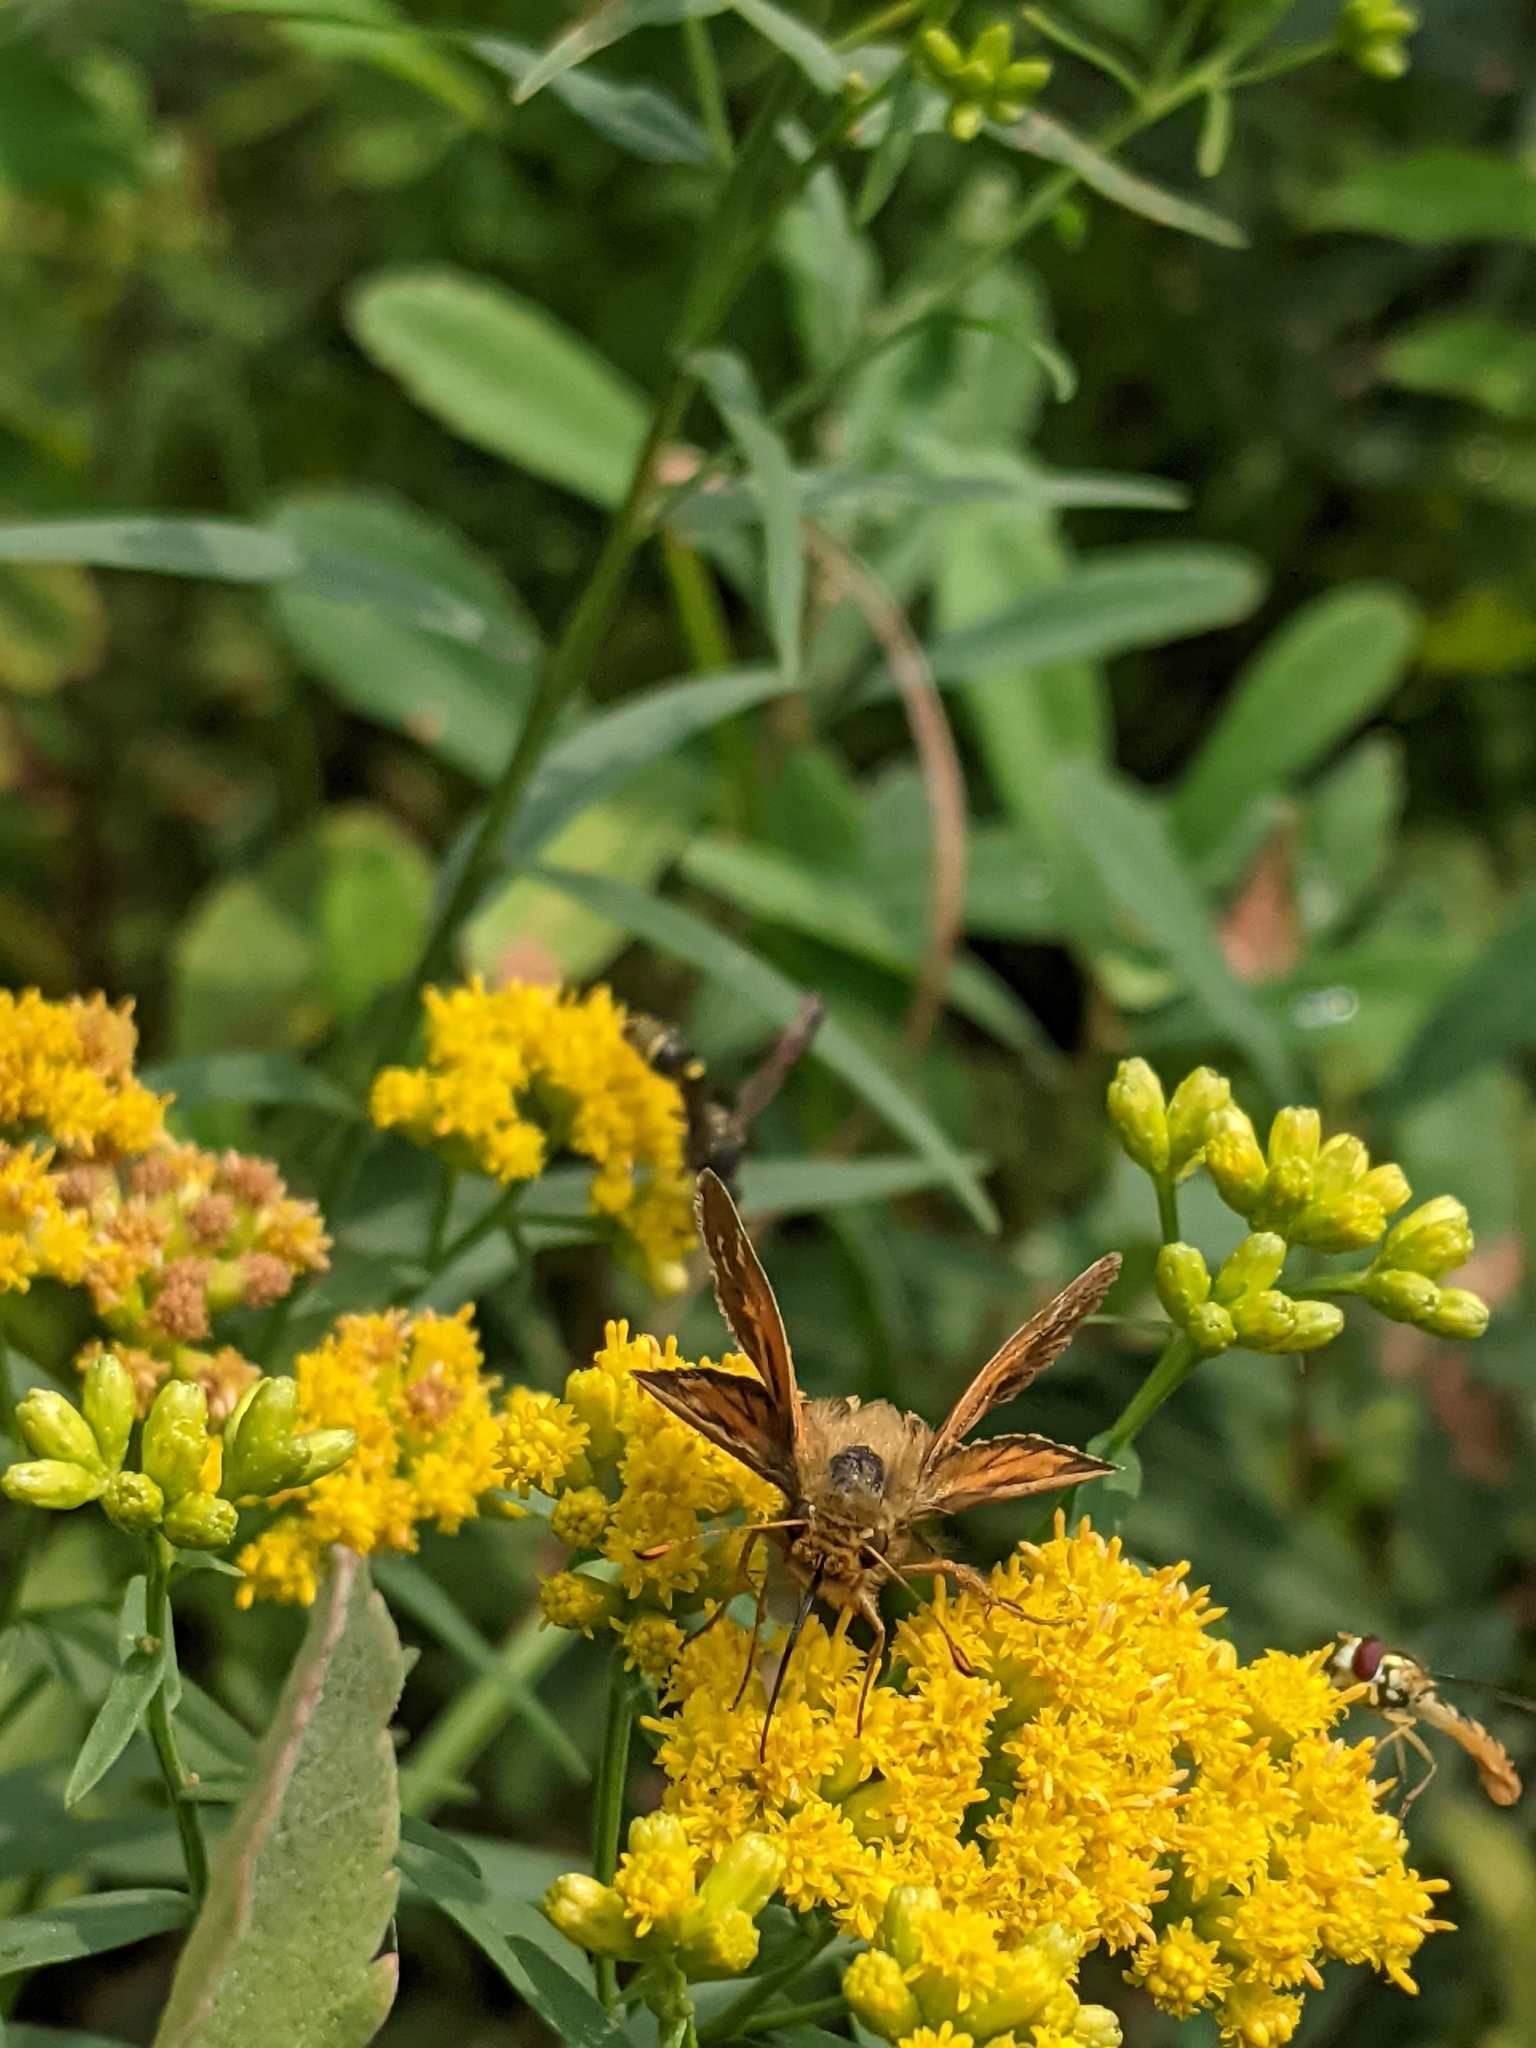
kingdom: Animalia
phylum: Arthropoda
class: Insecta
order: Lepidoptera
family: Hesperiidae
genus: Hesperia
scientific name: Hesperia comma
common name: Common branded skipper
